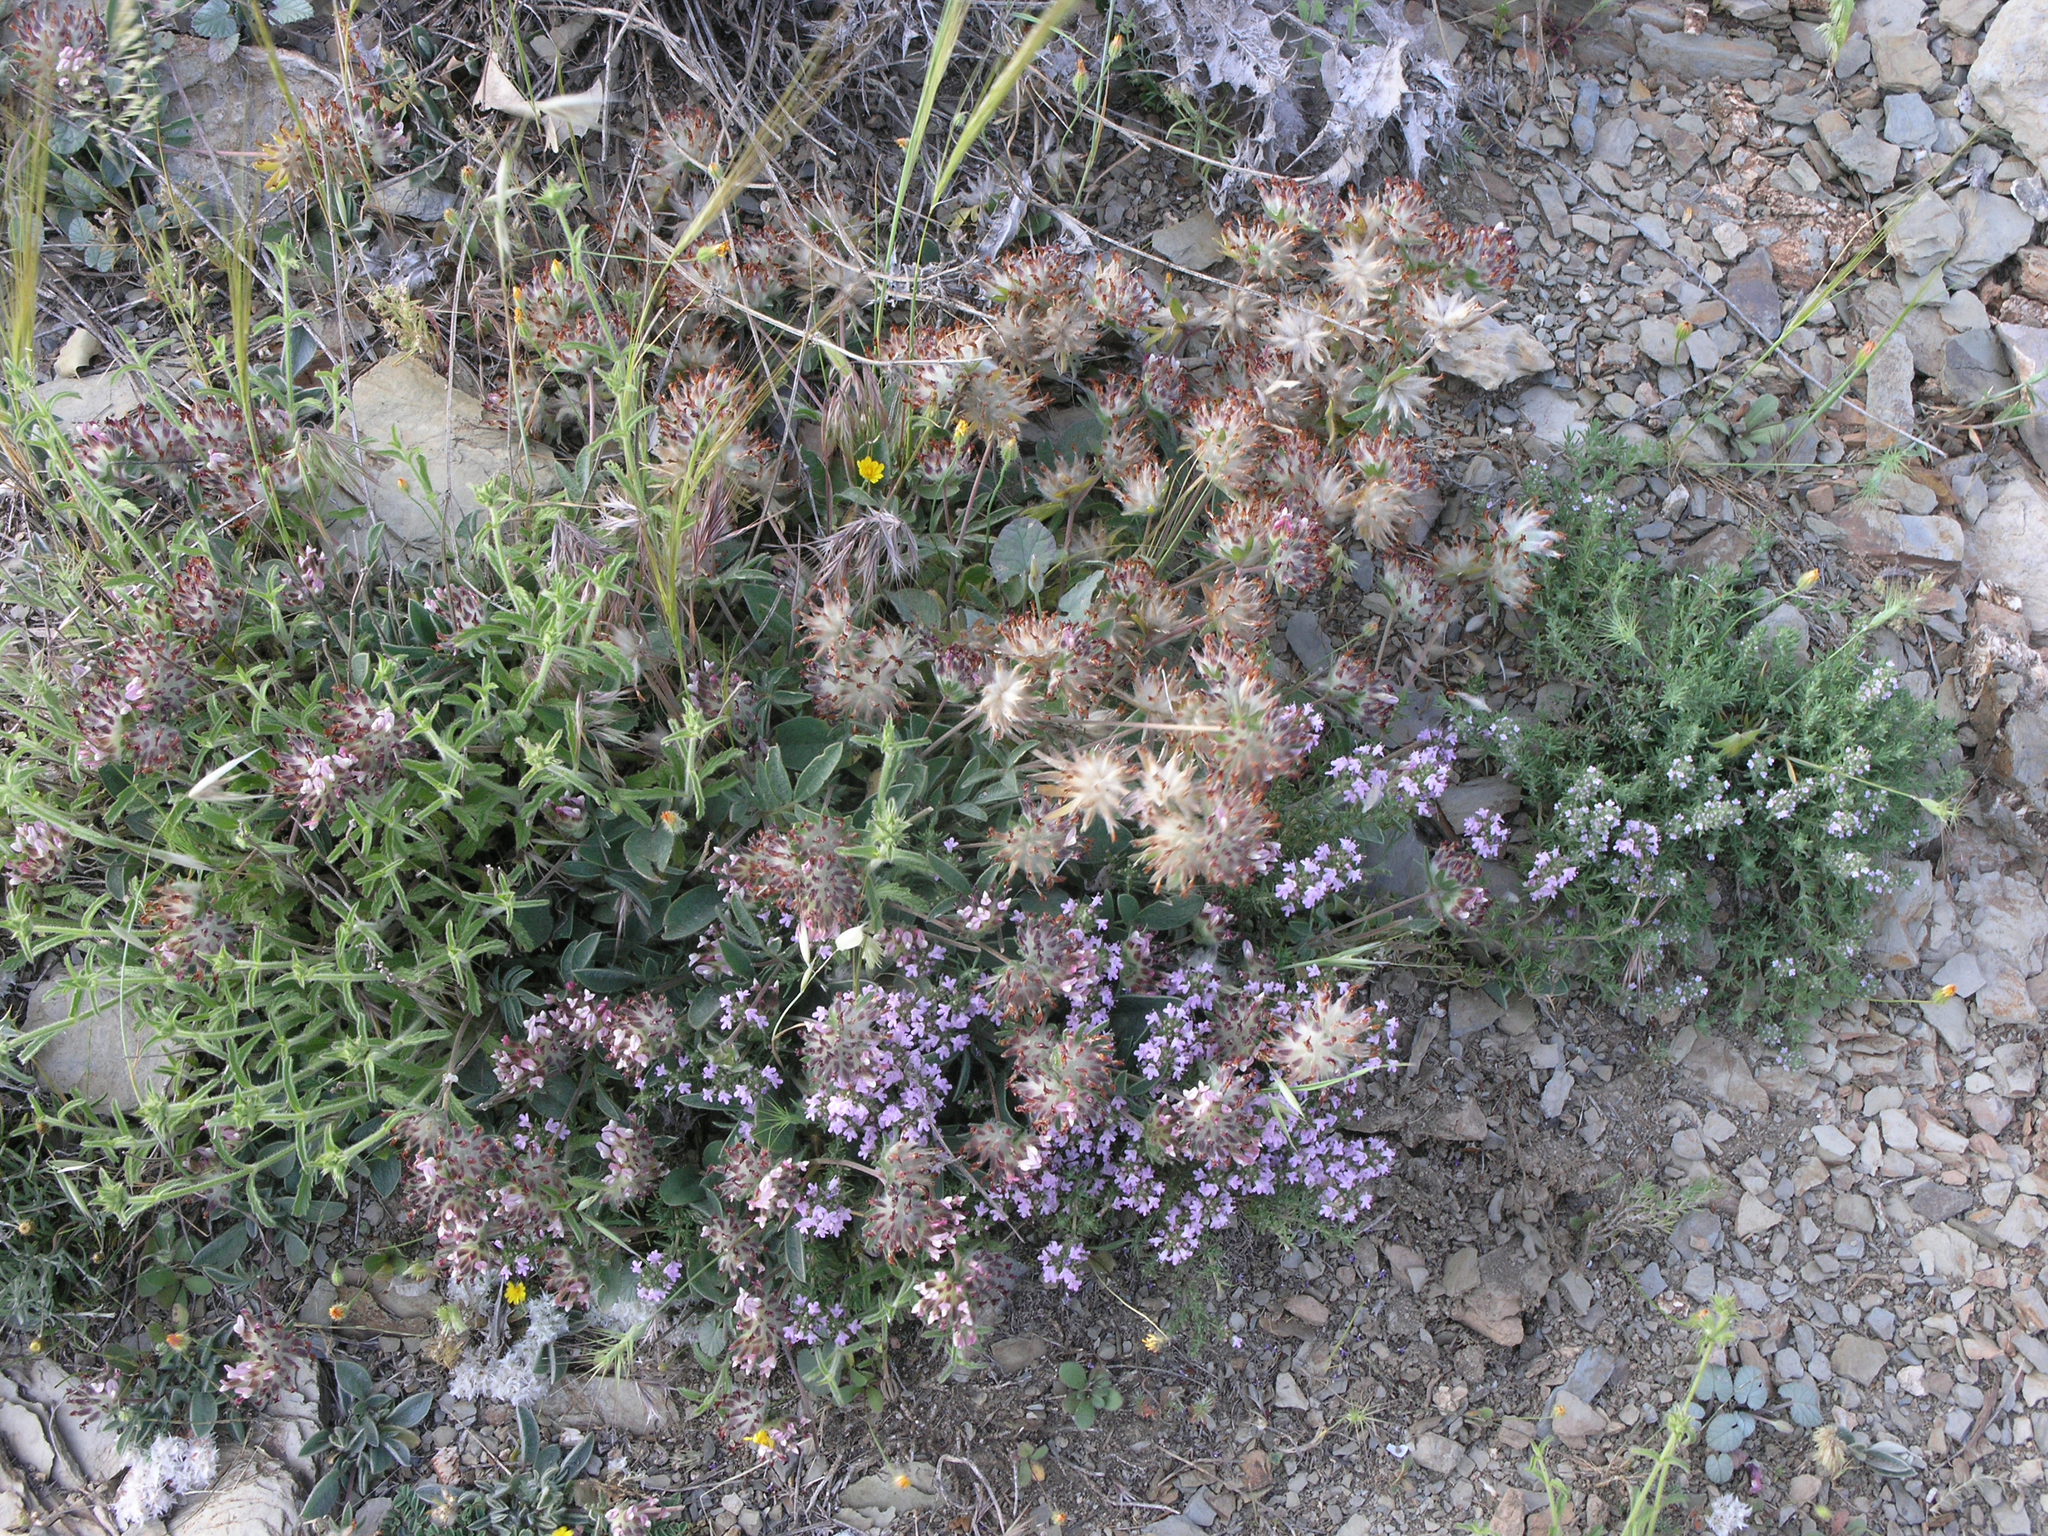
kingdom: Plantae
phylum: Tracheophyta
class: Magnoliopsida
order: Fabales
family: Fabaceae
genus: Anthyllis
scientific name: Anthyllis vulneraria
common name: Kidney vetch
